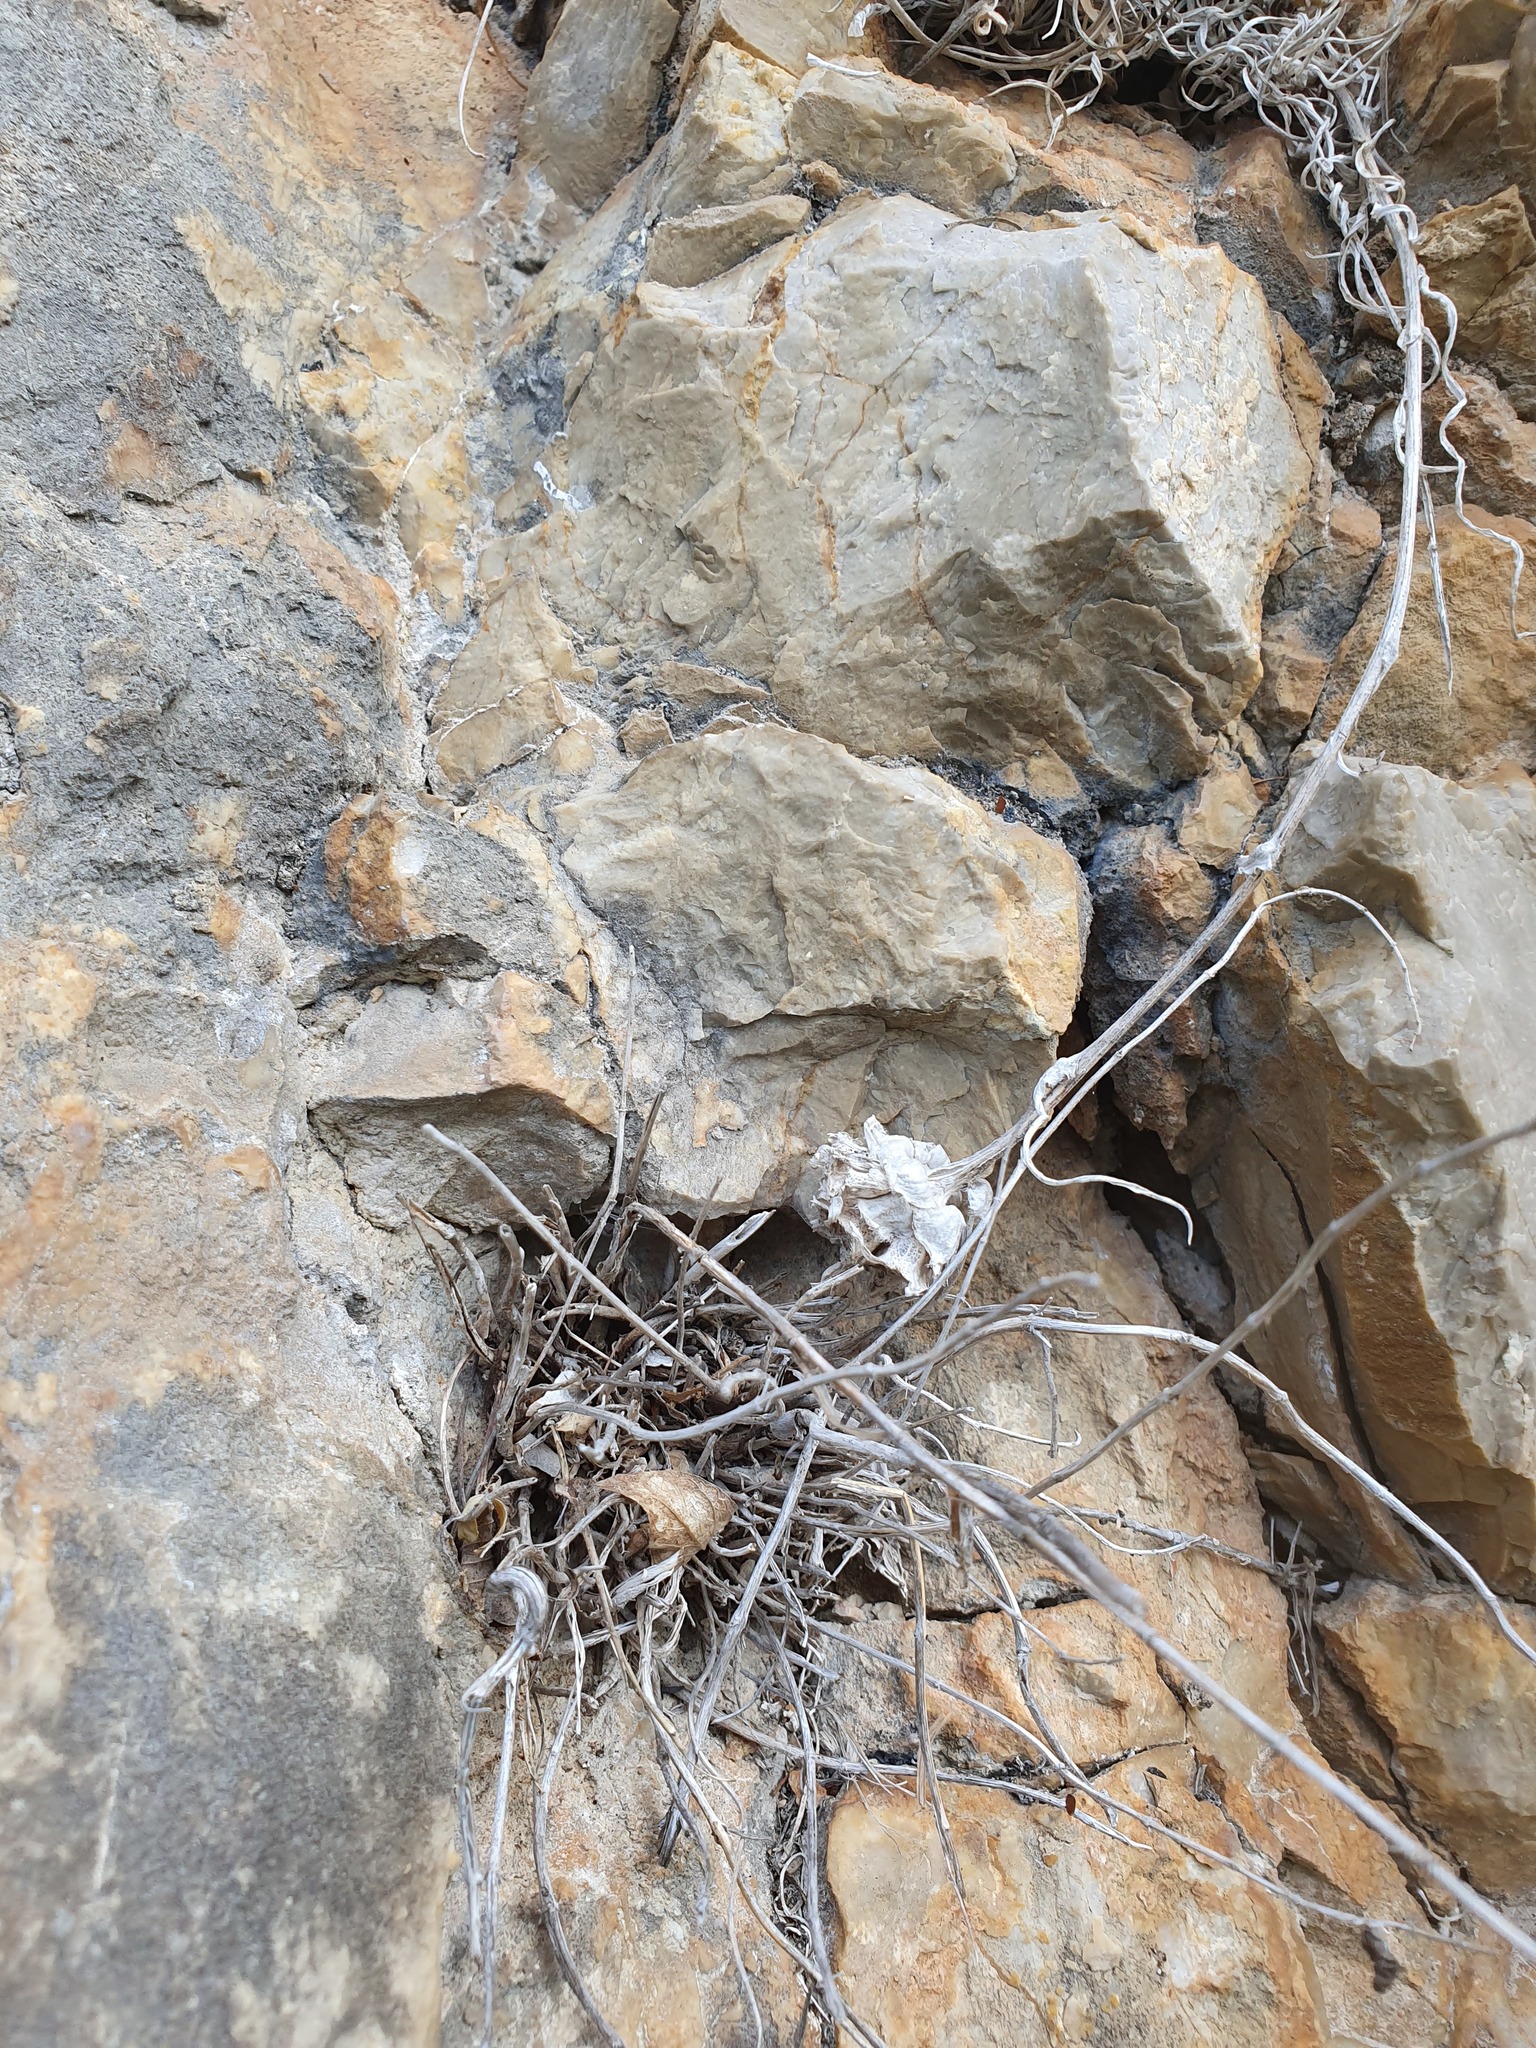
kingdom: Plantae
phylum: Tracheophyta
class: Magnoliopsida
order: Asterales
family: Campanulaceae
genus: Edraianthus
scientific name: Edraianthus graminifolius
